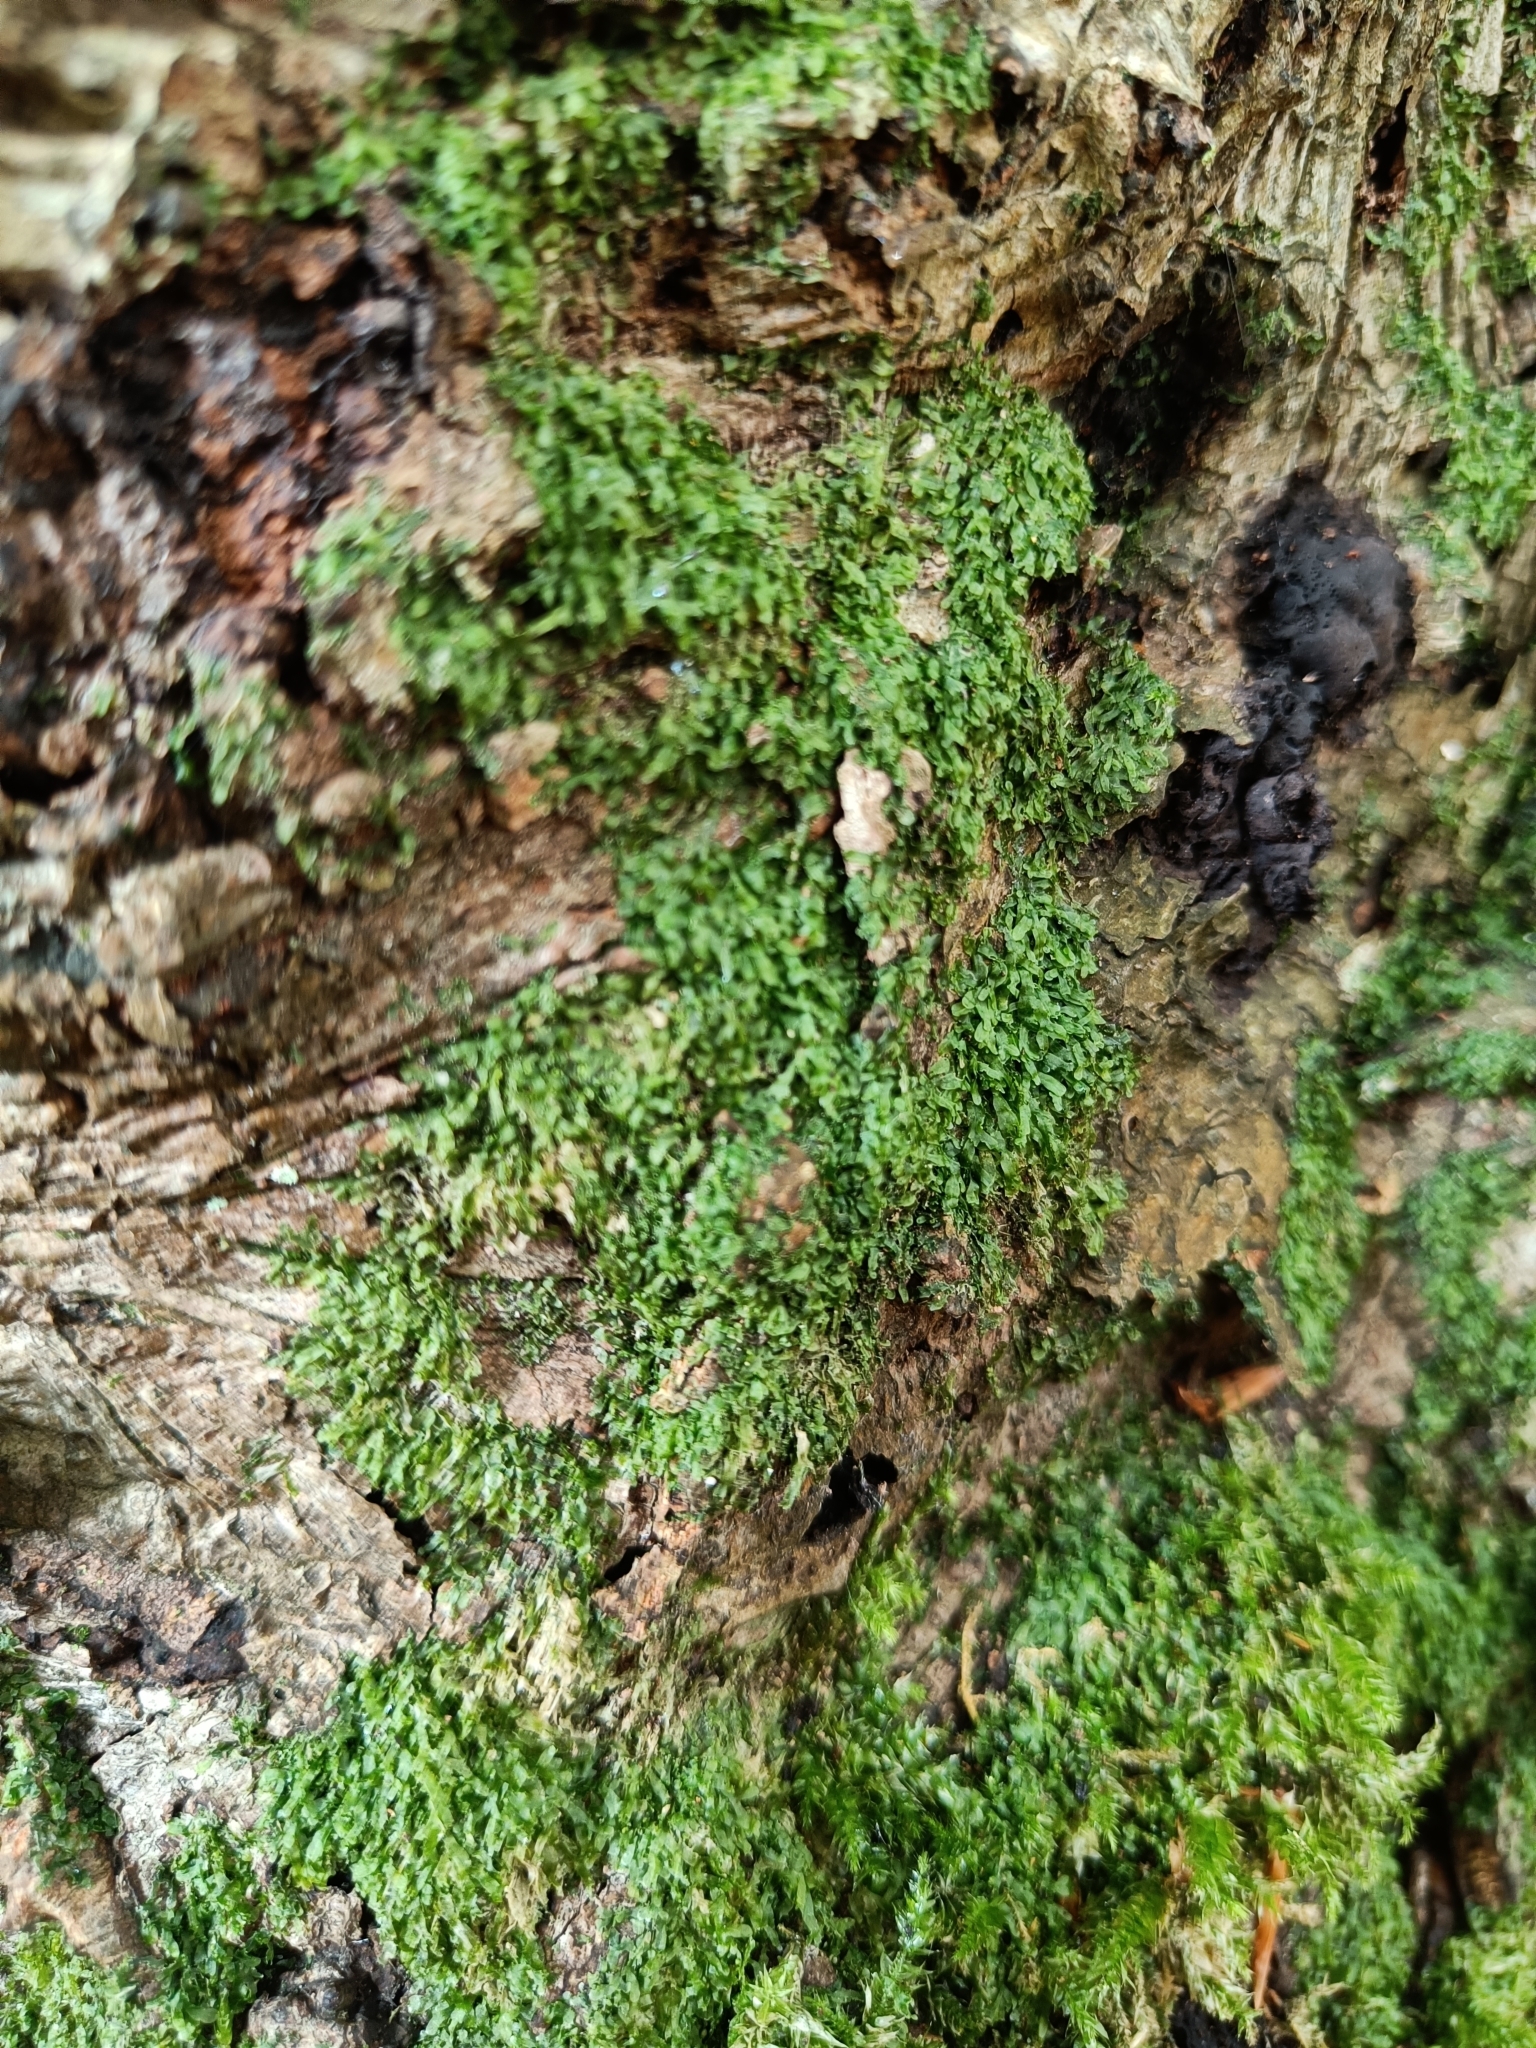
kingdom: Plantae
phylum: Marchantiophyta
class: Jungermanniopsida
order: Porellales
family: Radulaceae
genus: Radula
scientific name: Radula complanata
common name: Flat-leaved scalewort
